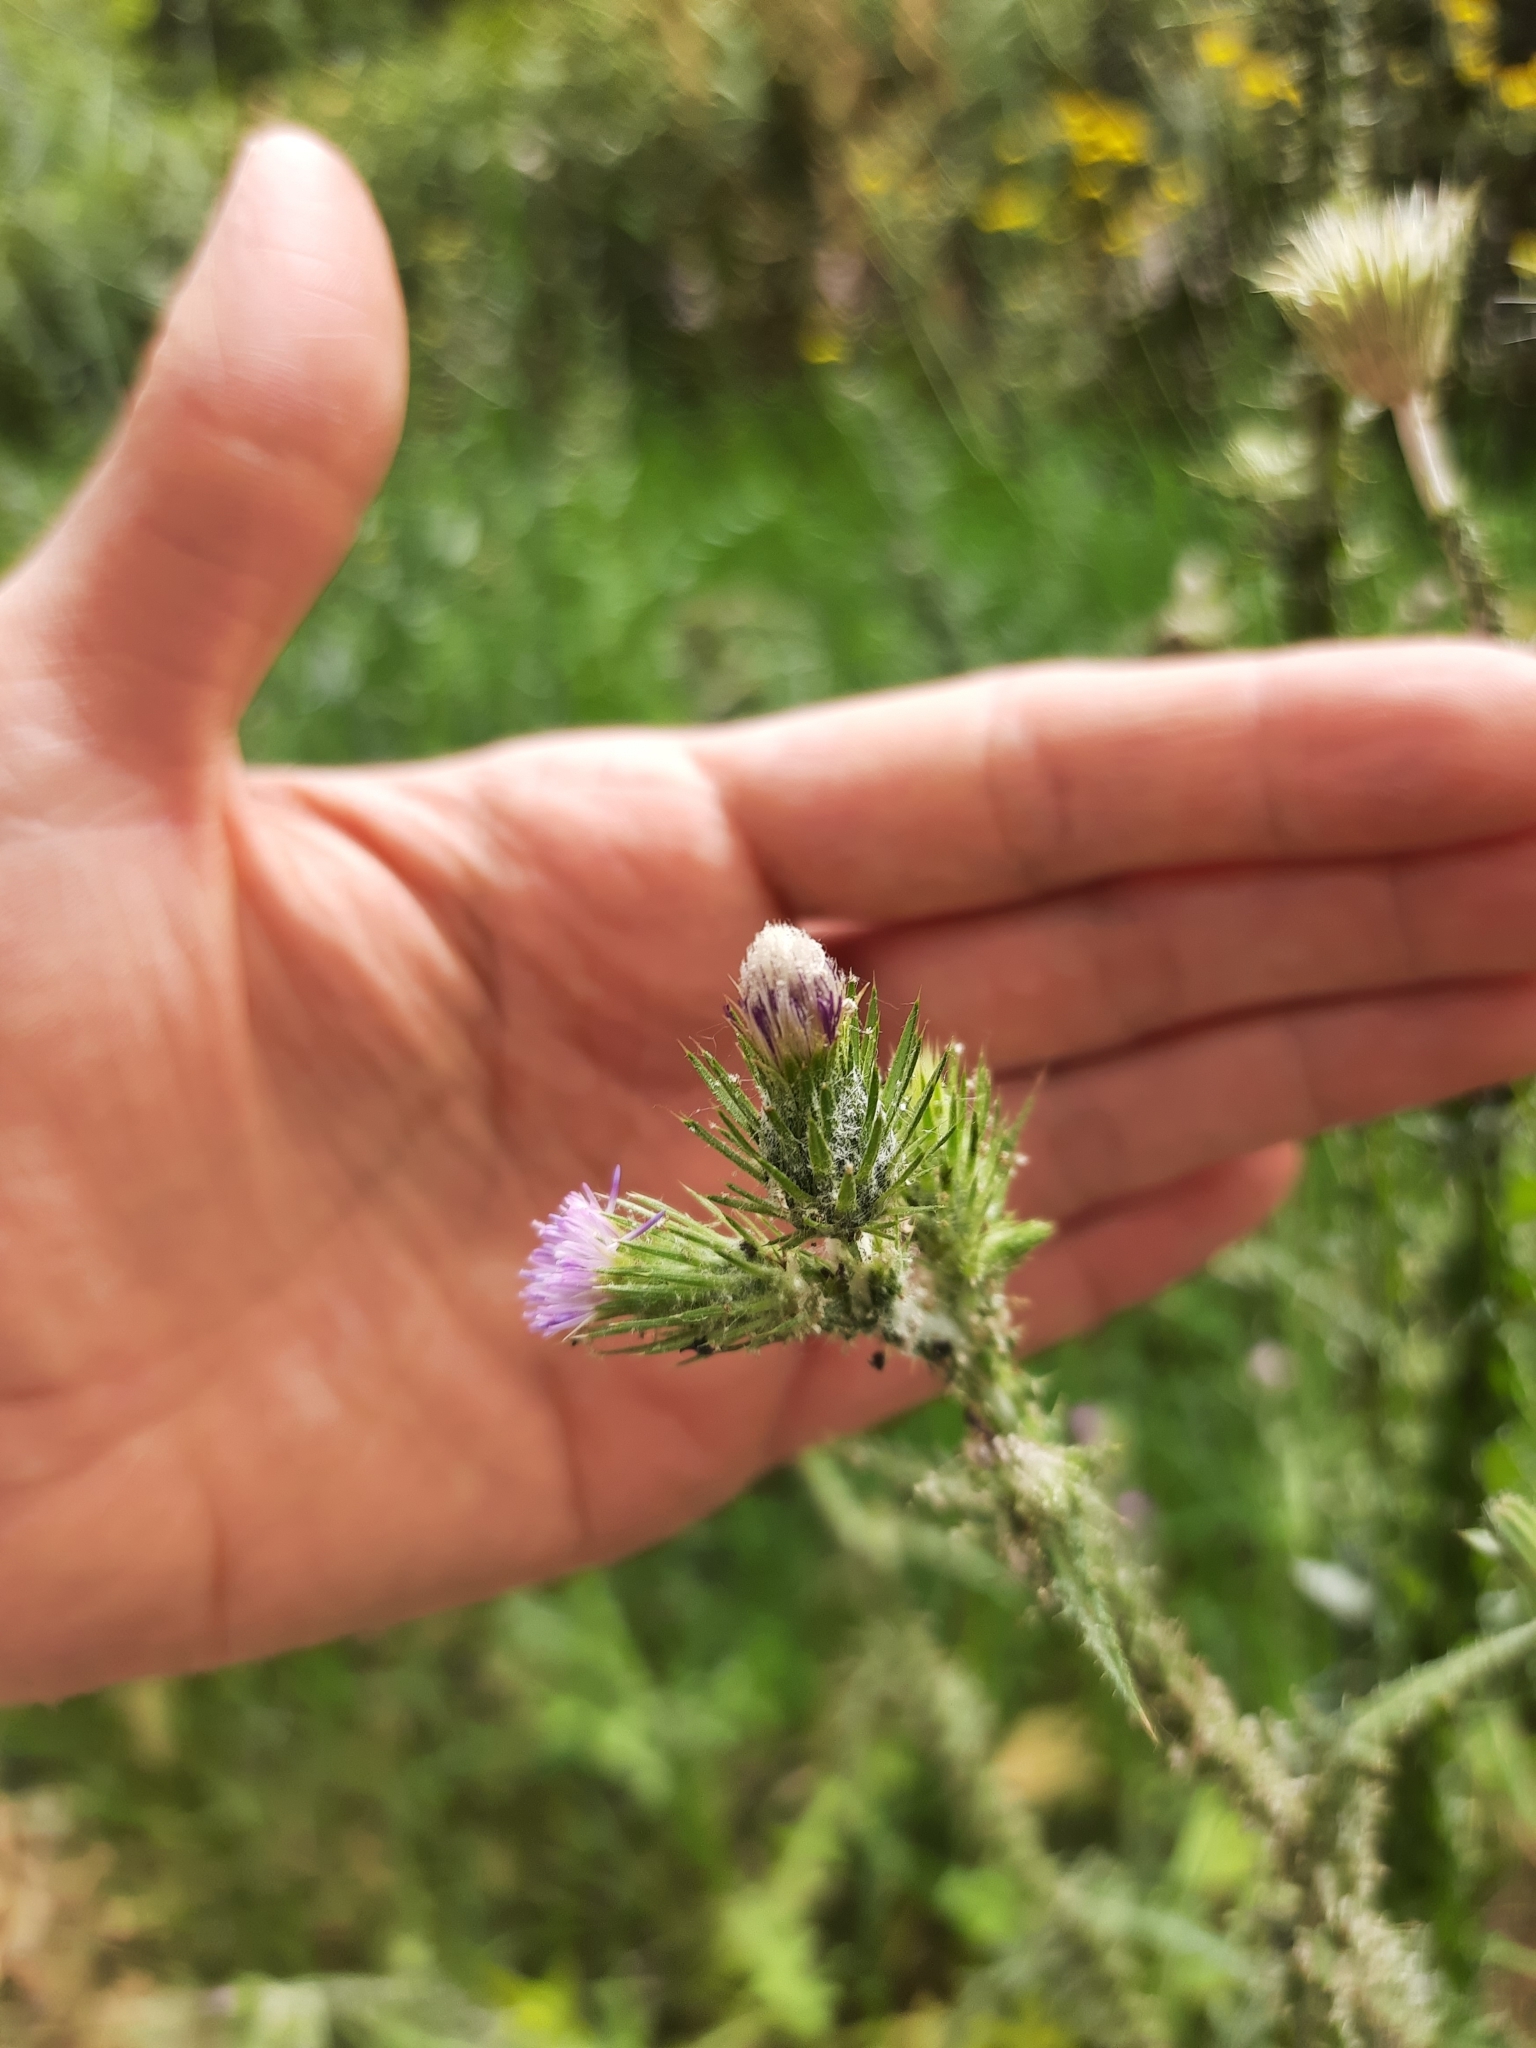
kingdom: Plantae
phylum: Tracheophyta
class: Magnoliopsida
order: Asterales
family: Asteraceae
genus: Carduus
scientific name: Carduus pycnocephalus
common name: Plymouth thistle
